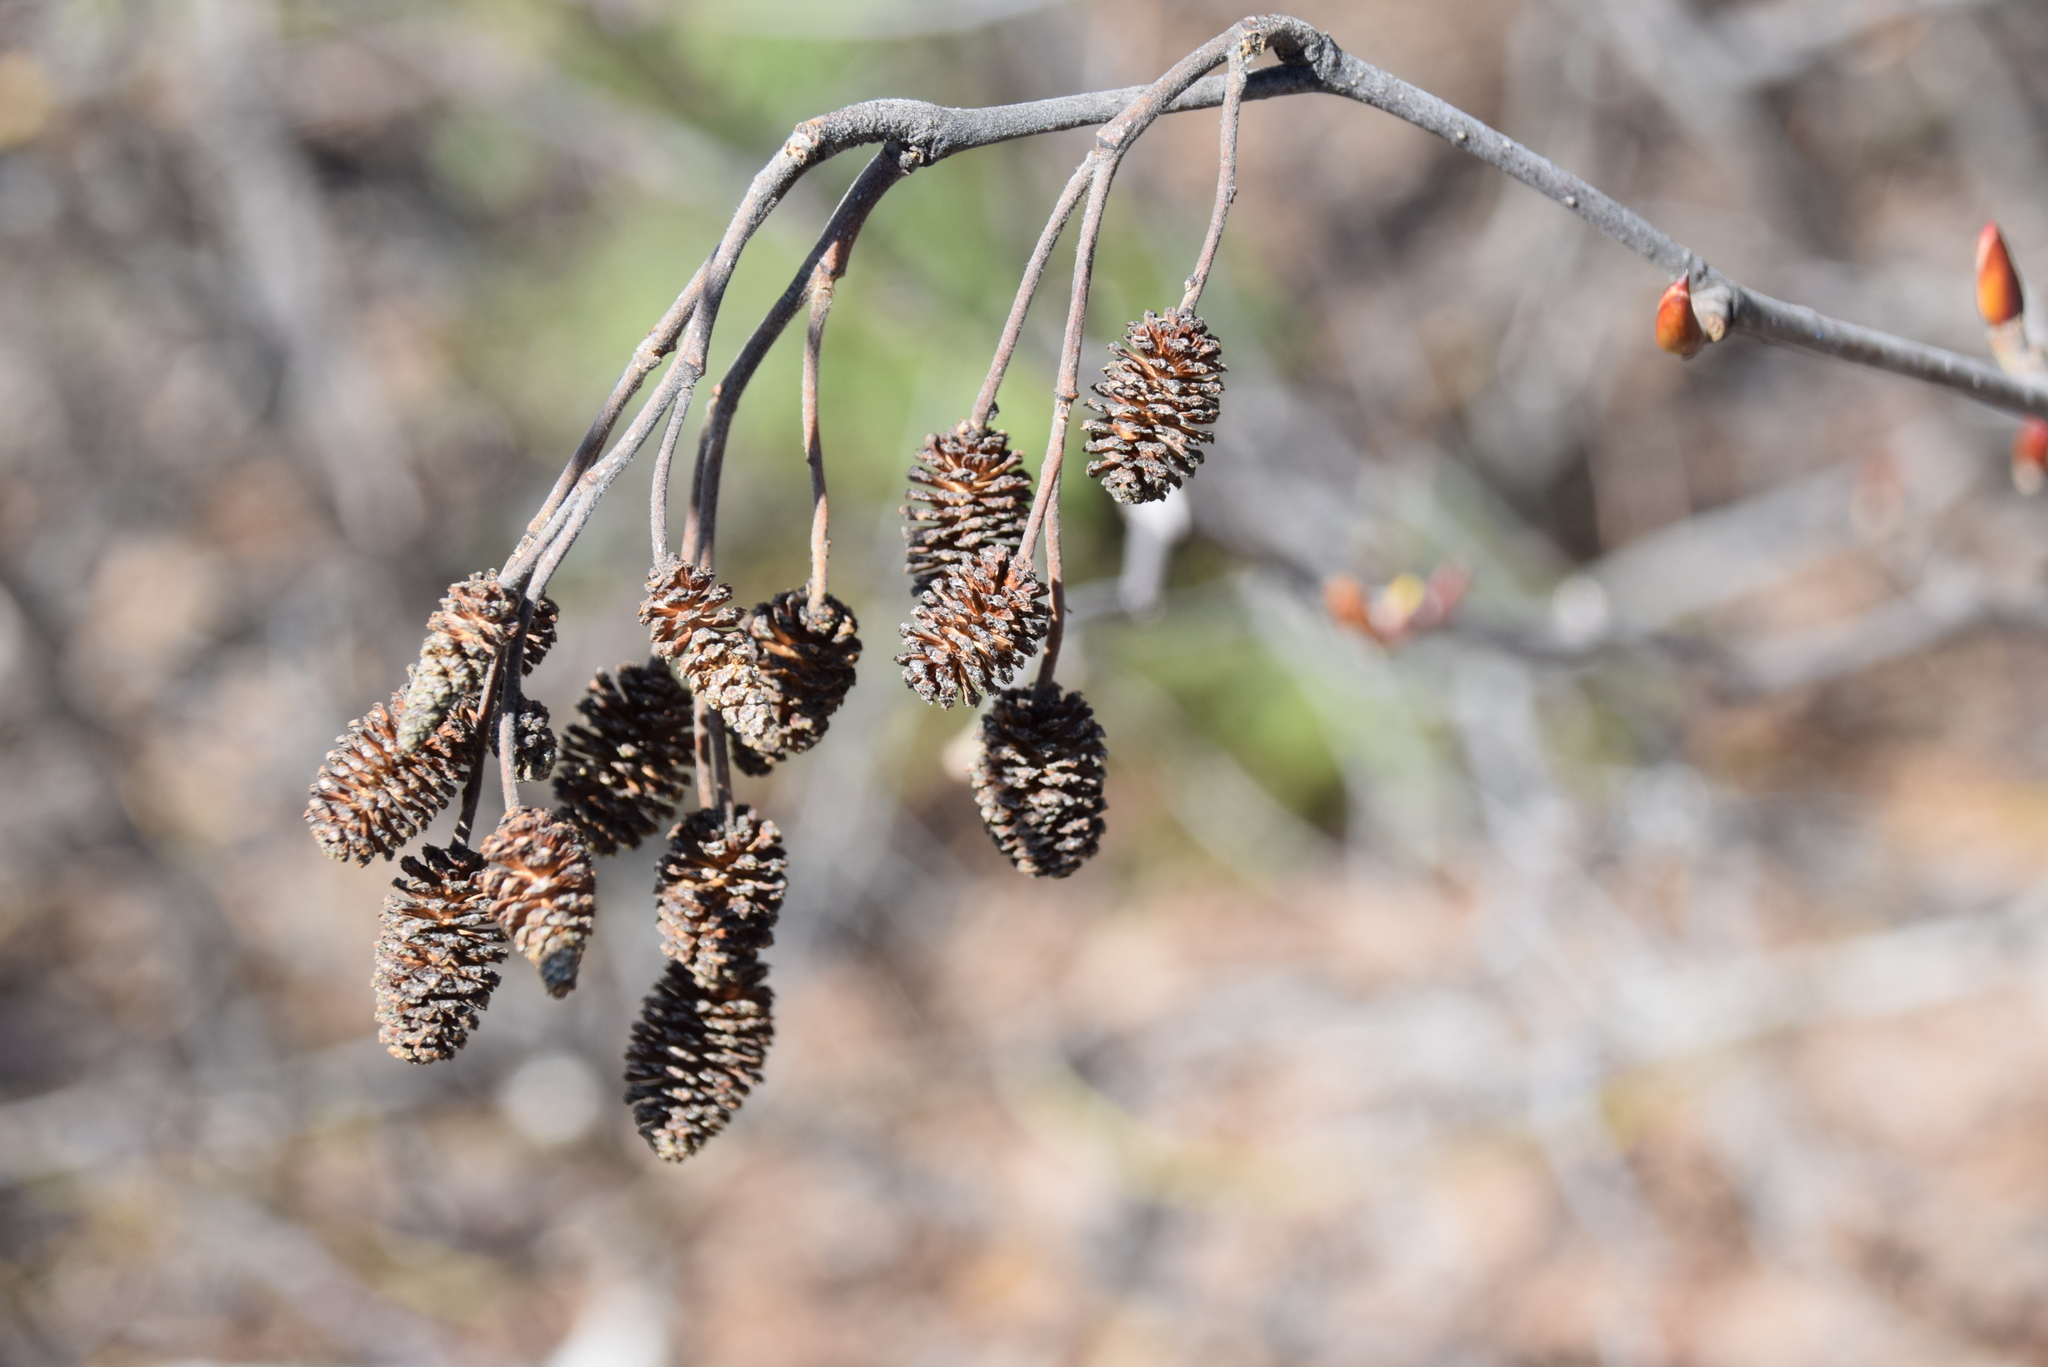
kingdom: Plantae
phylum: Tracheophyta
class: Magnoliopsida
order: Fagales
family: Betulaceae
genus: Alnus
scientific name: Alnus alnobetula
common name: Green alder
